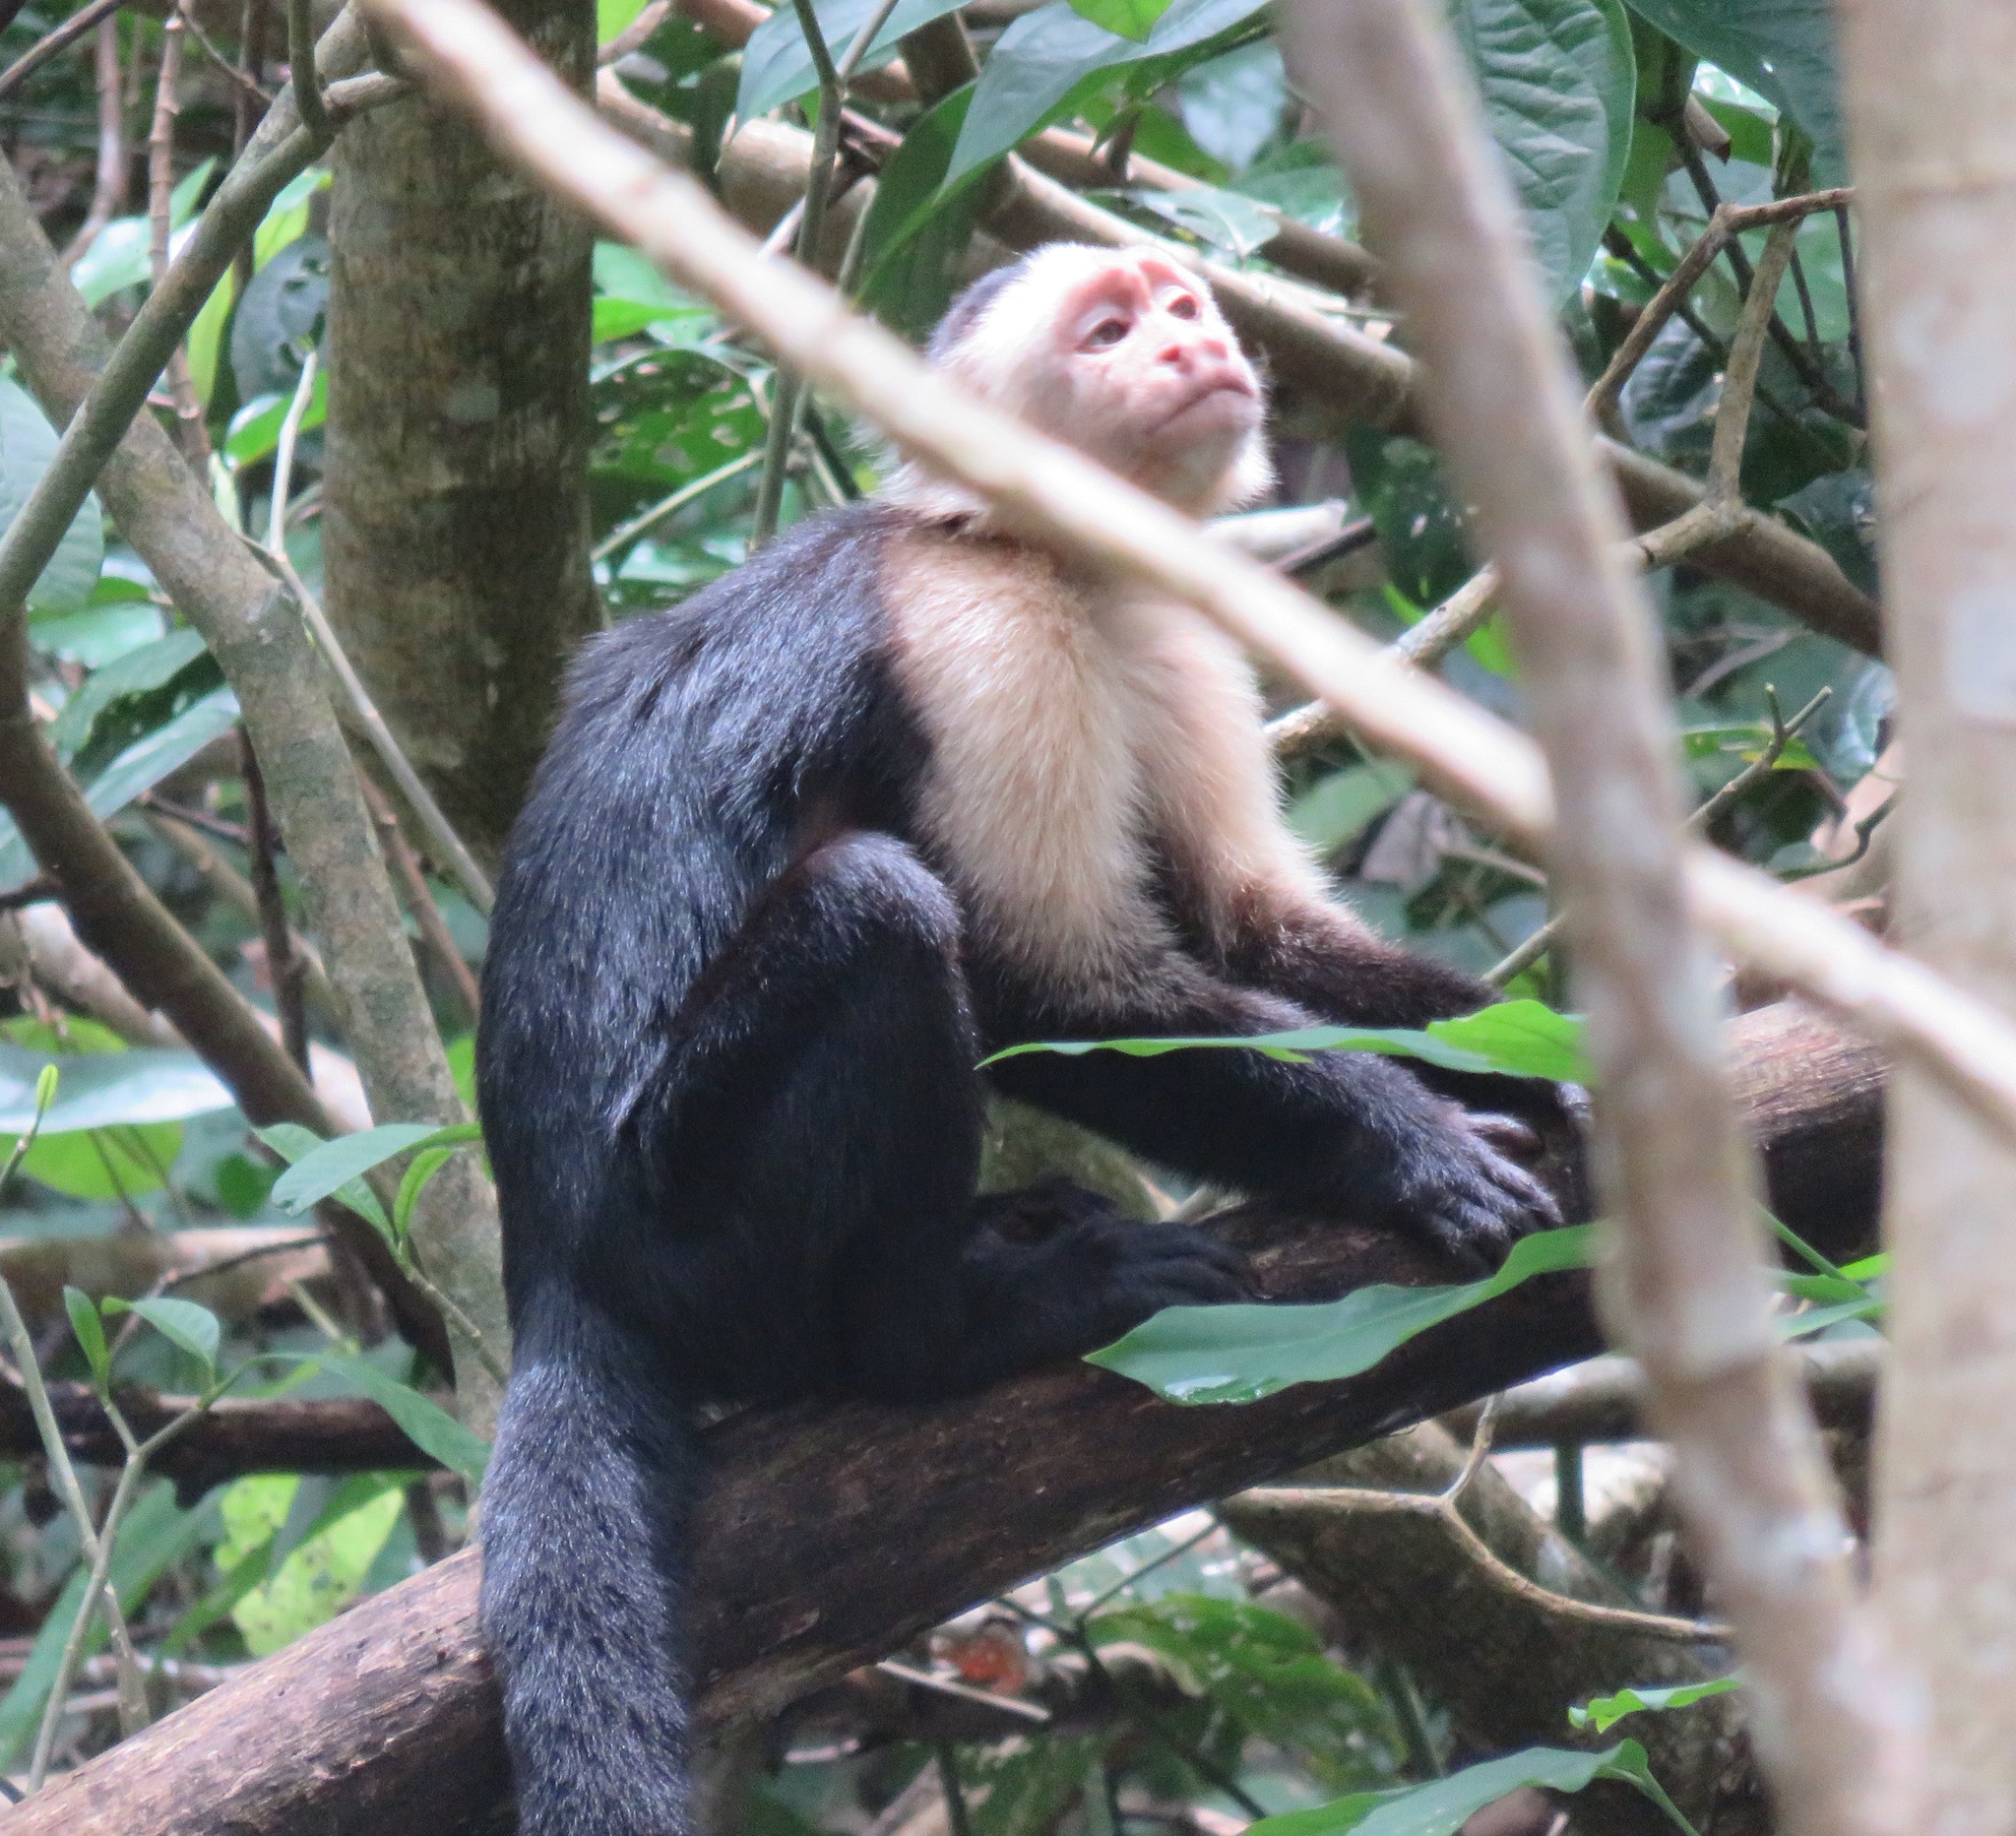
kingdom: Animalia
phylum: Chordata
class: Mammalia
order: Primates
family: Cebidae
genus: Cebus
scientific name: Cebus imitator
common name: Panamanian white-faced capuchin
